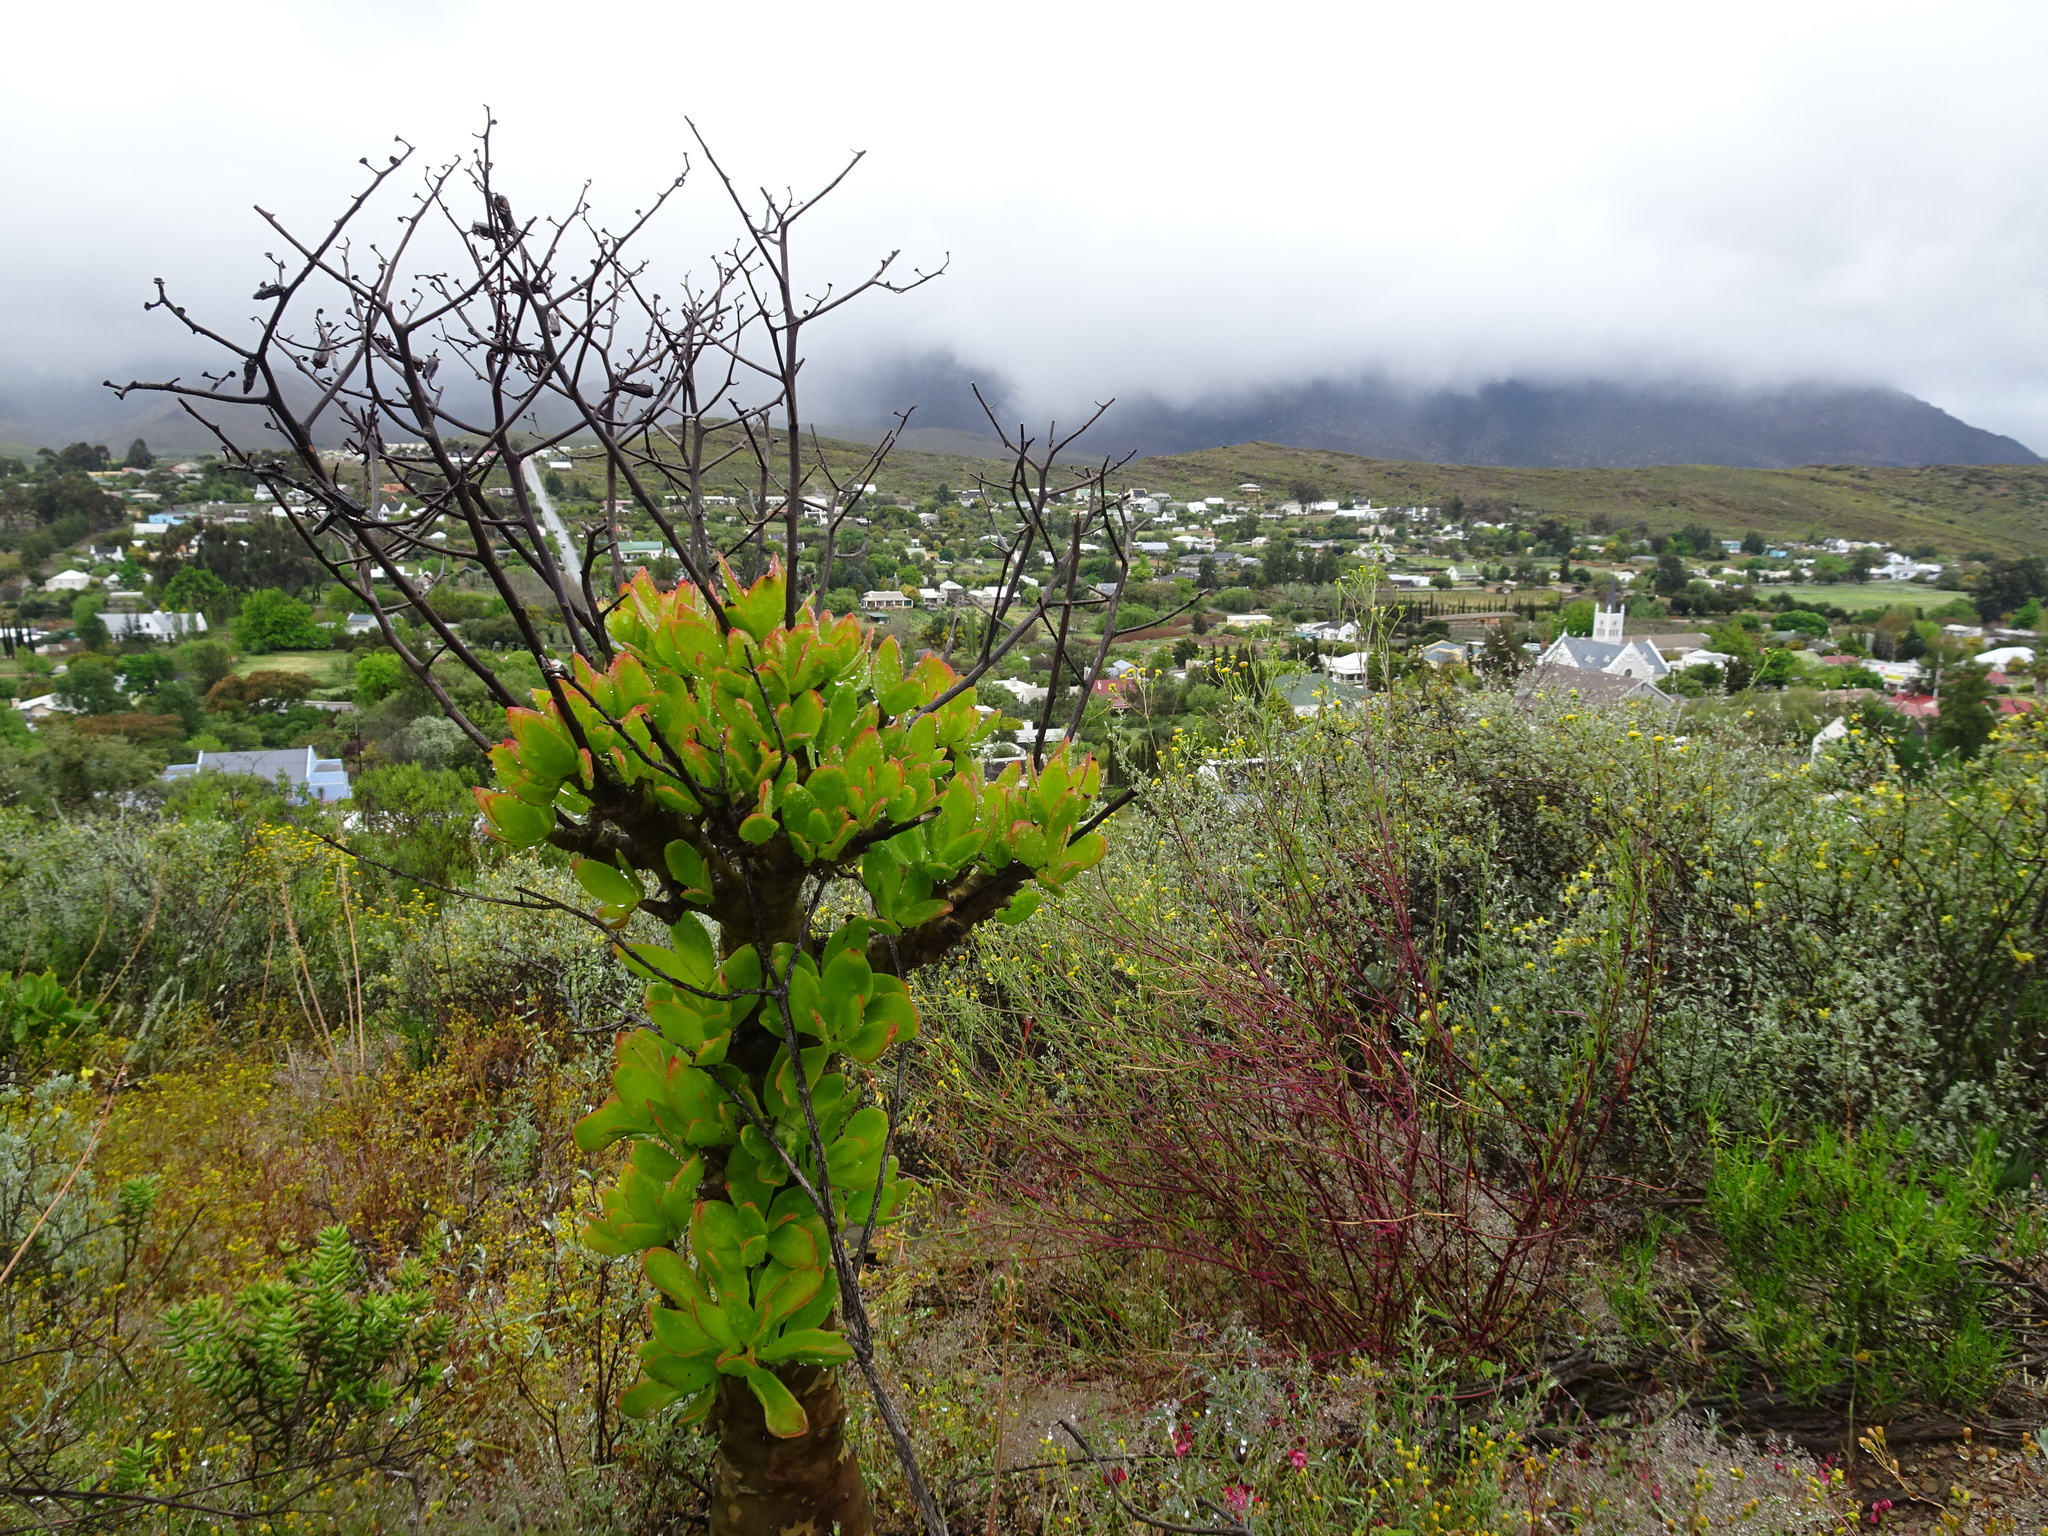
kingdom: Plantae
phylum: Tracheophyta
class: Magnoliopsida
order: Saxifragales
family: Crassulaceae
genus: Tylecodon
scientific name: Tylecodon paniculatus
